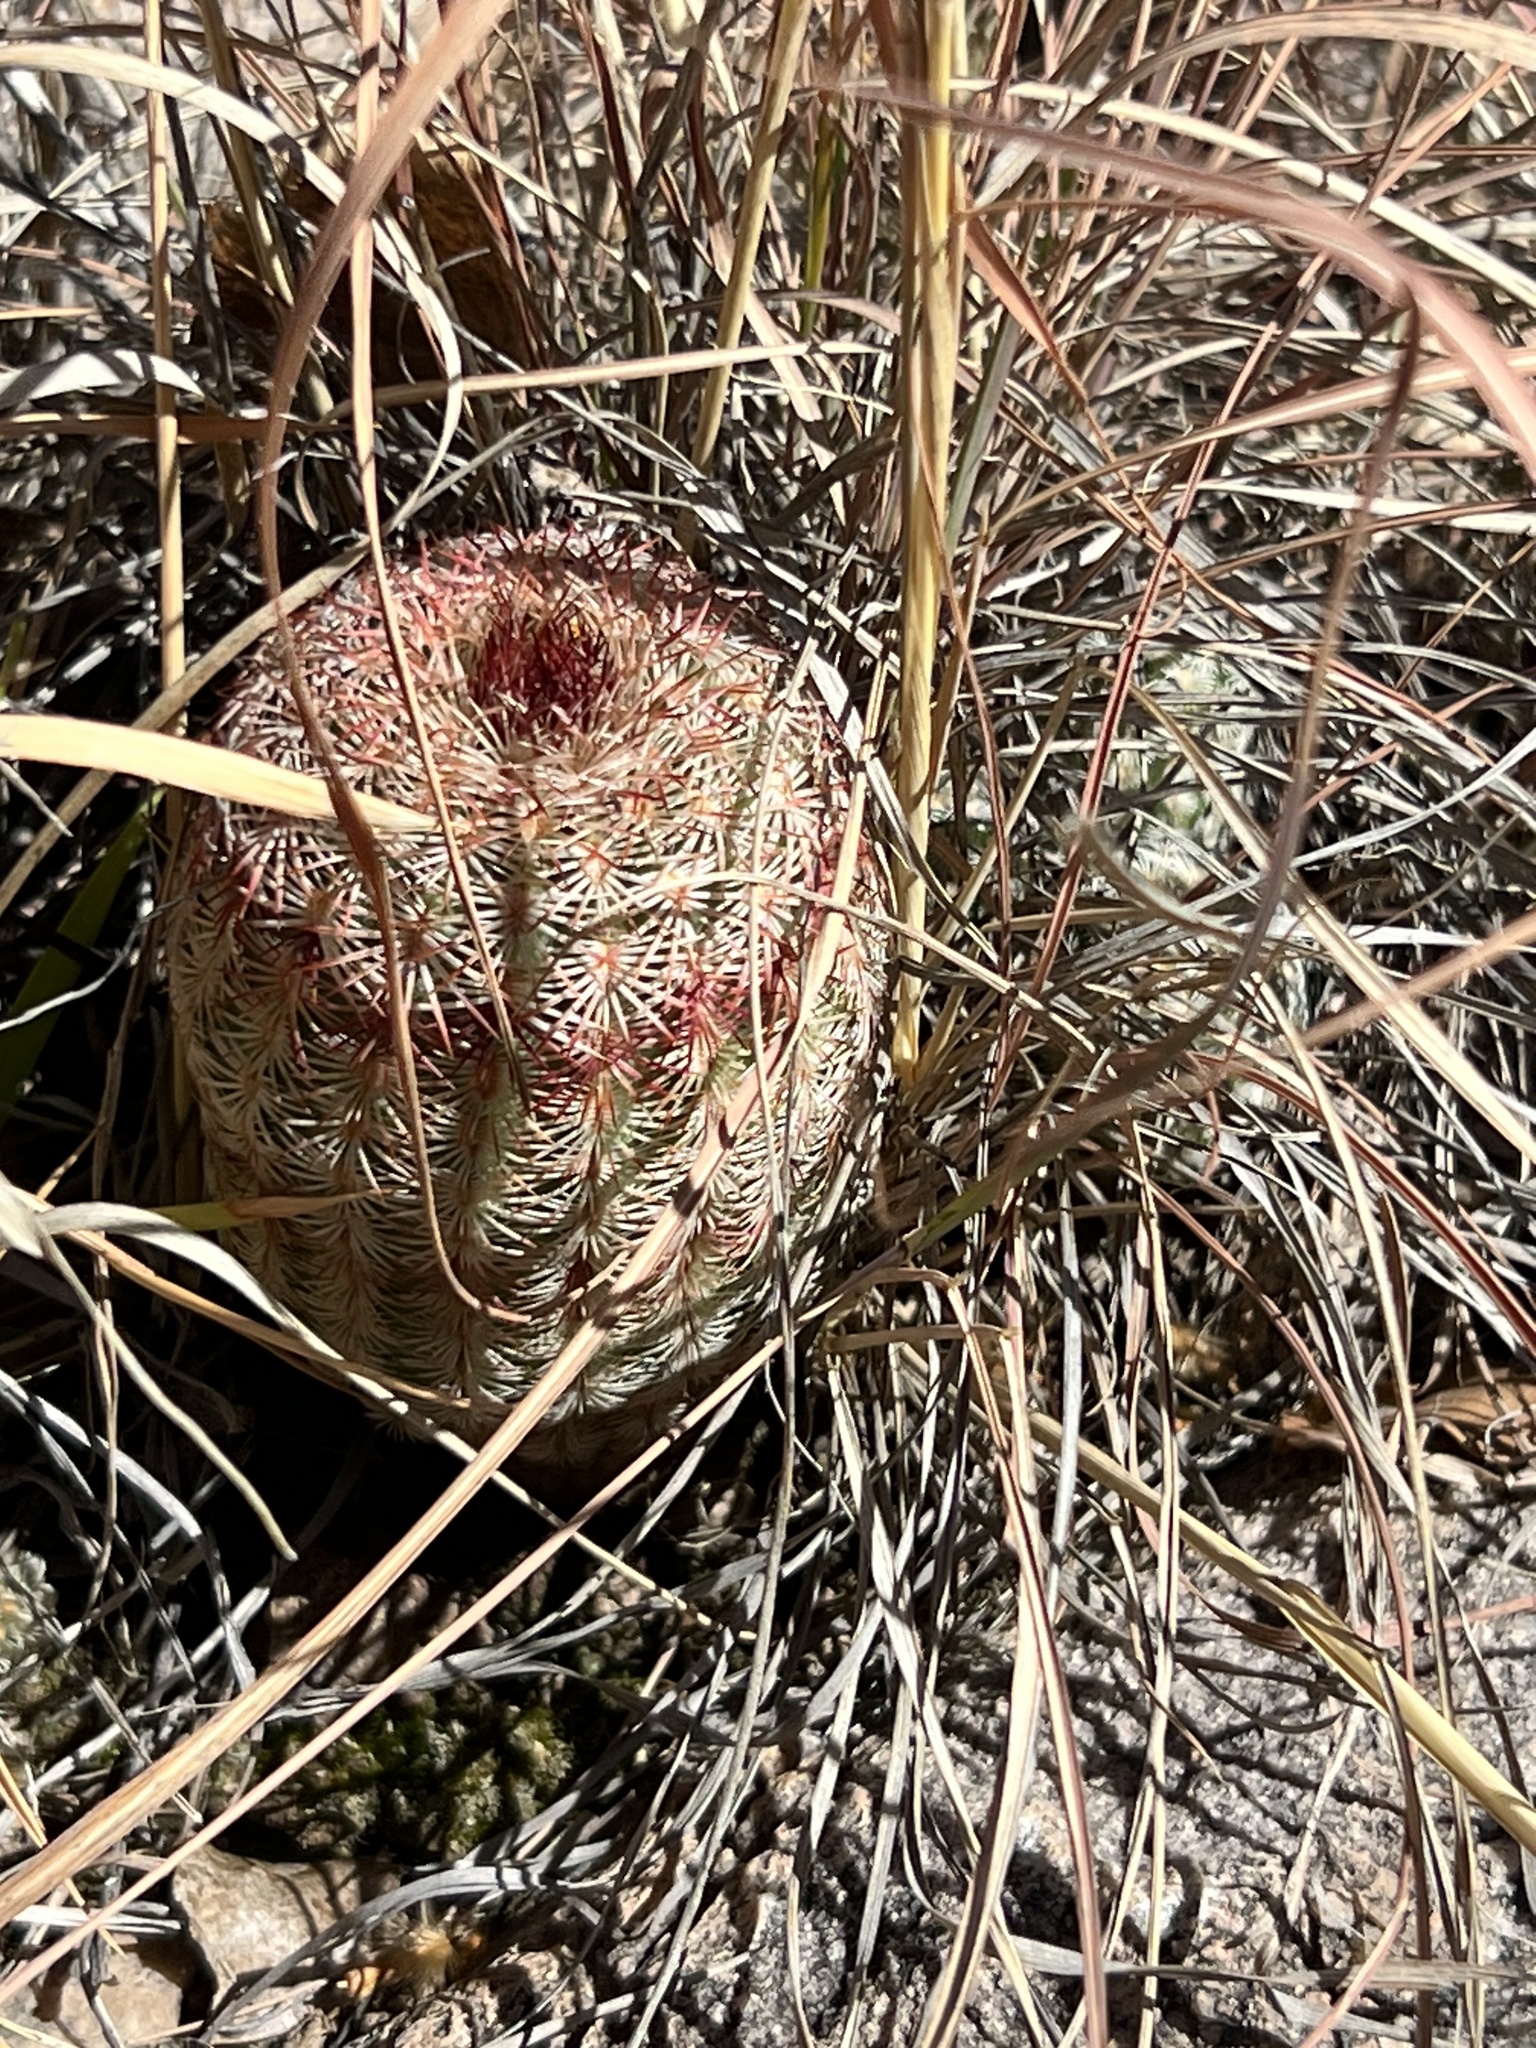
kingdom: Plantae
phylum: Tracheophyta
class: Magnoliopsida
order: Caryophyllales
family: Cactaceae
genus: Echinocereus
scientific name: Echinocereus rigidissimus
